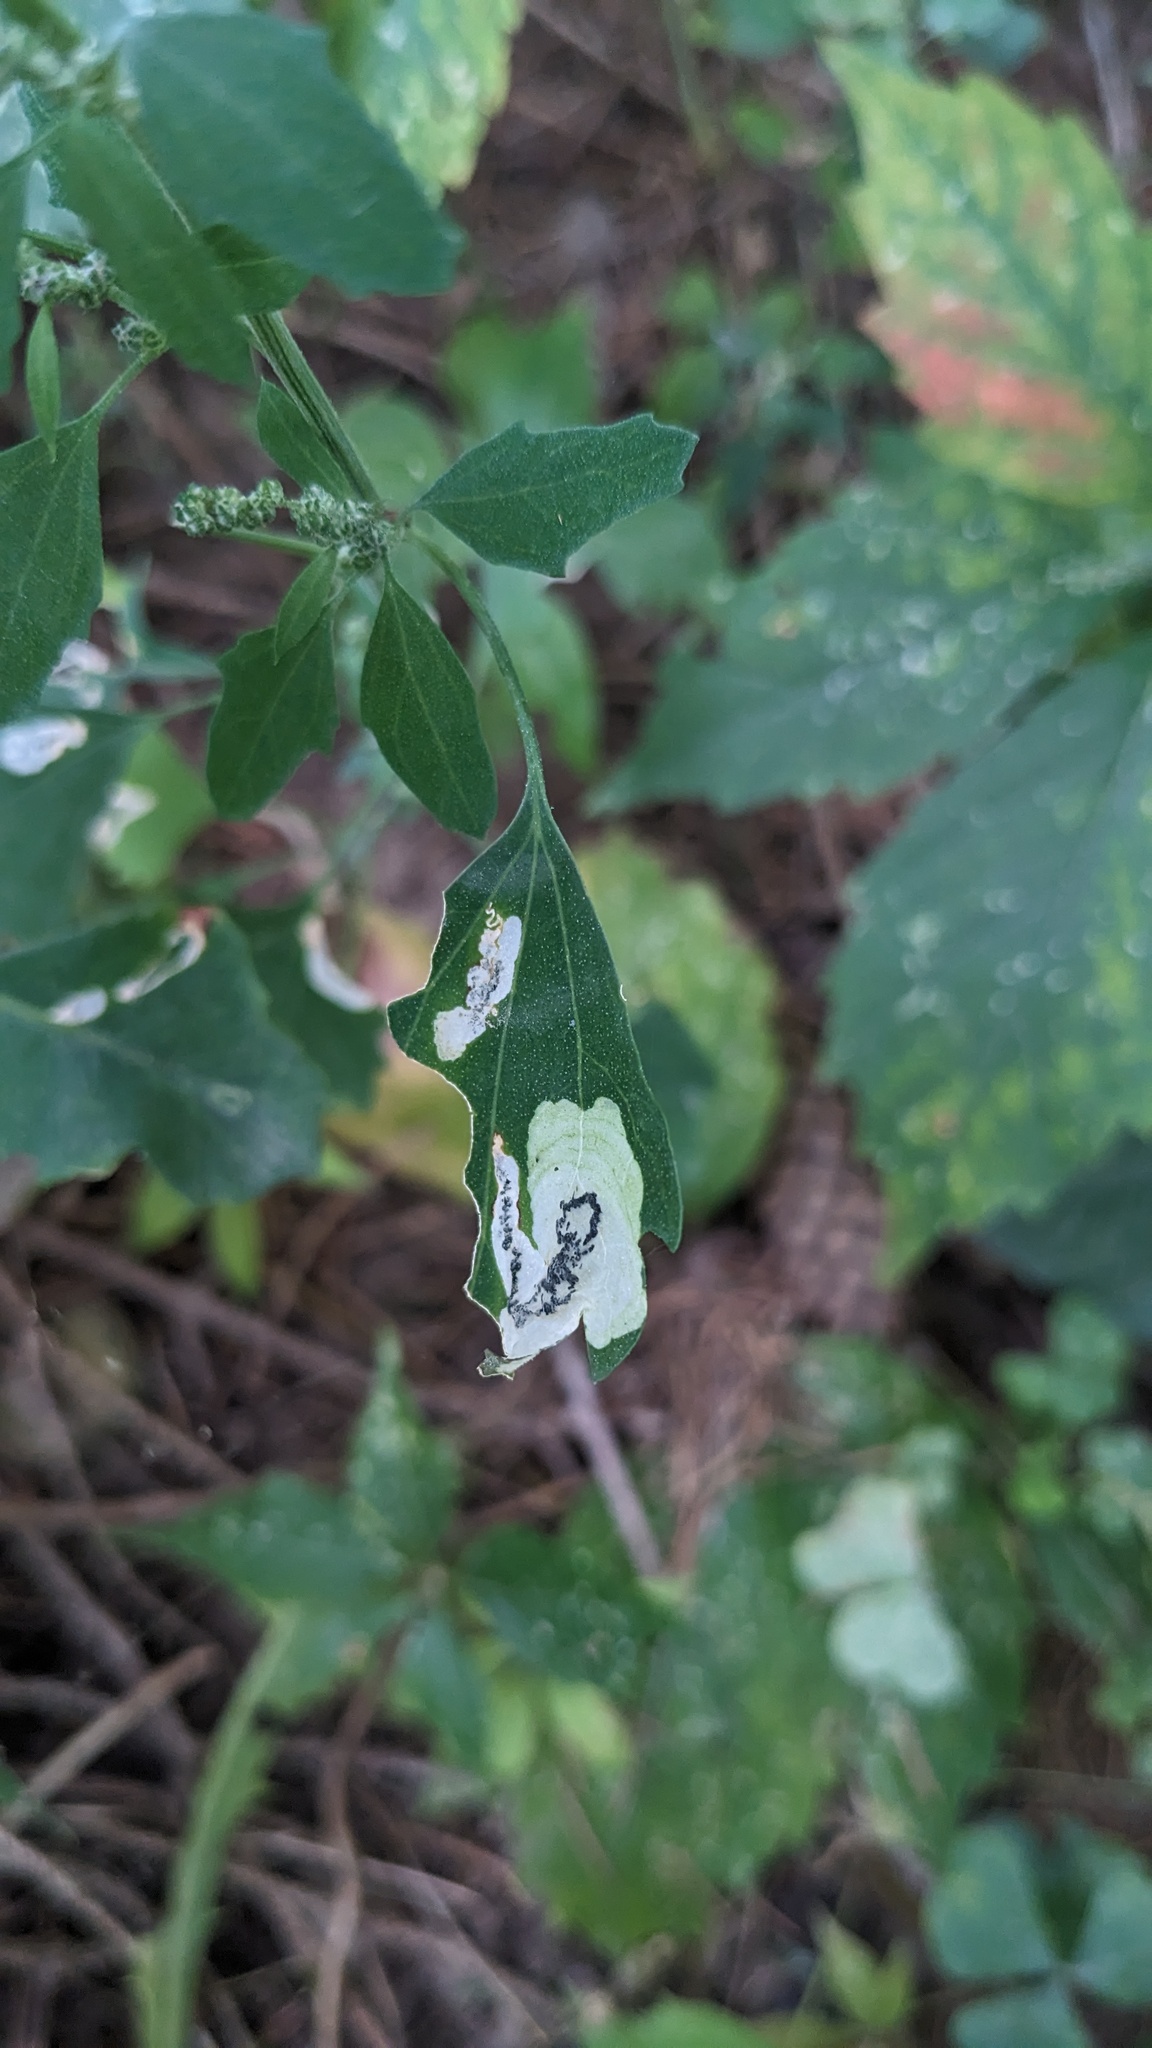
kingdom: Animalia
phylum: Arthropoda
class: Insecta
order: Lepidoptera
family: Gelechiidae
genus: Chrysoesthia
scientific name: Chrysoesthia sexguttella
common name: Moth
